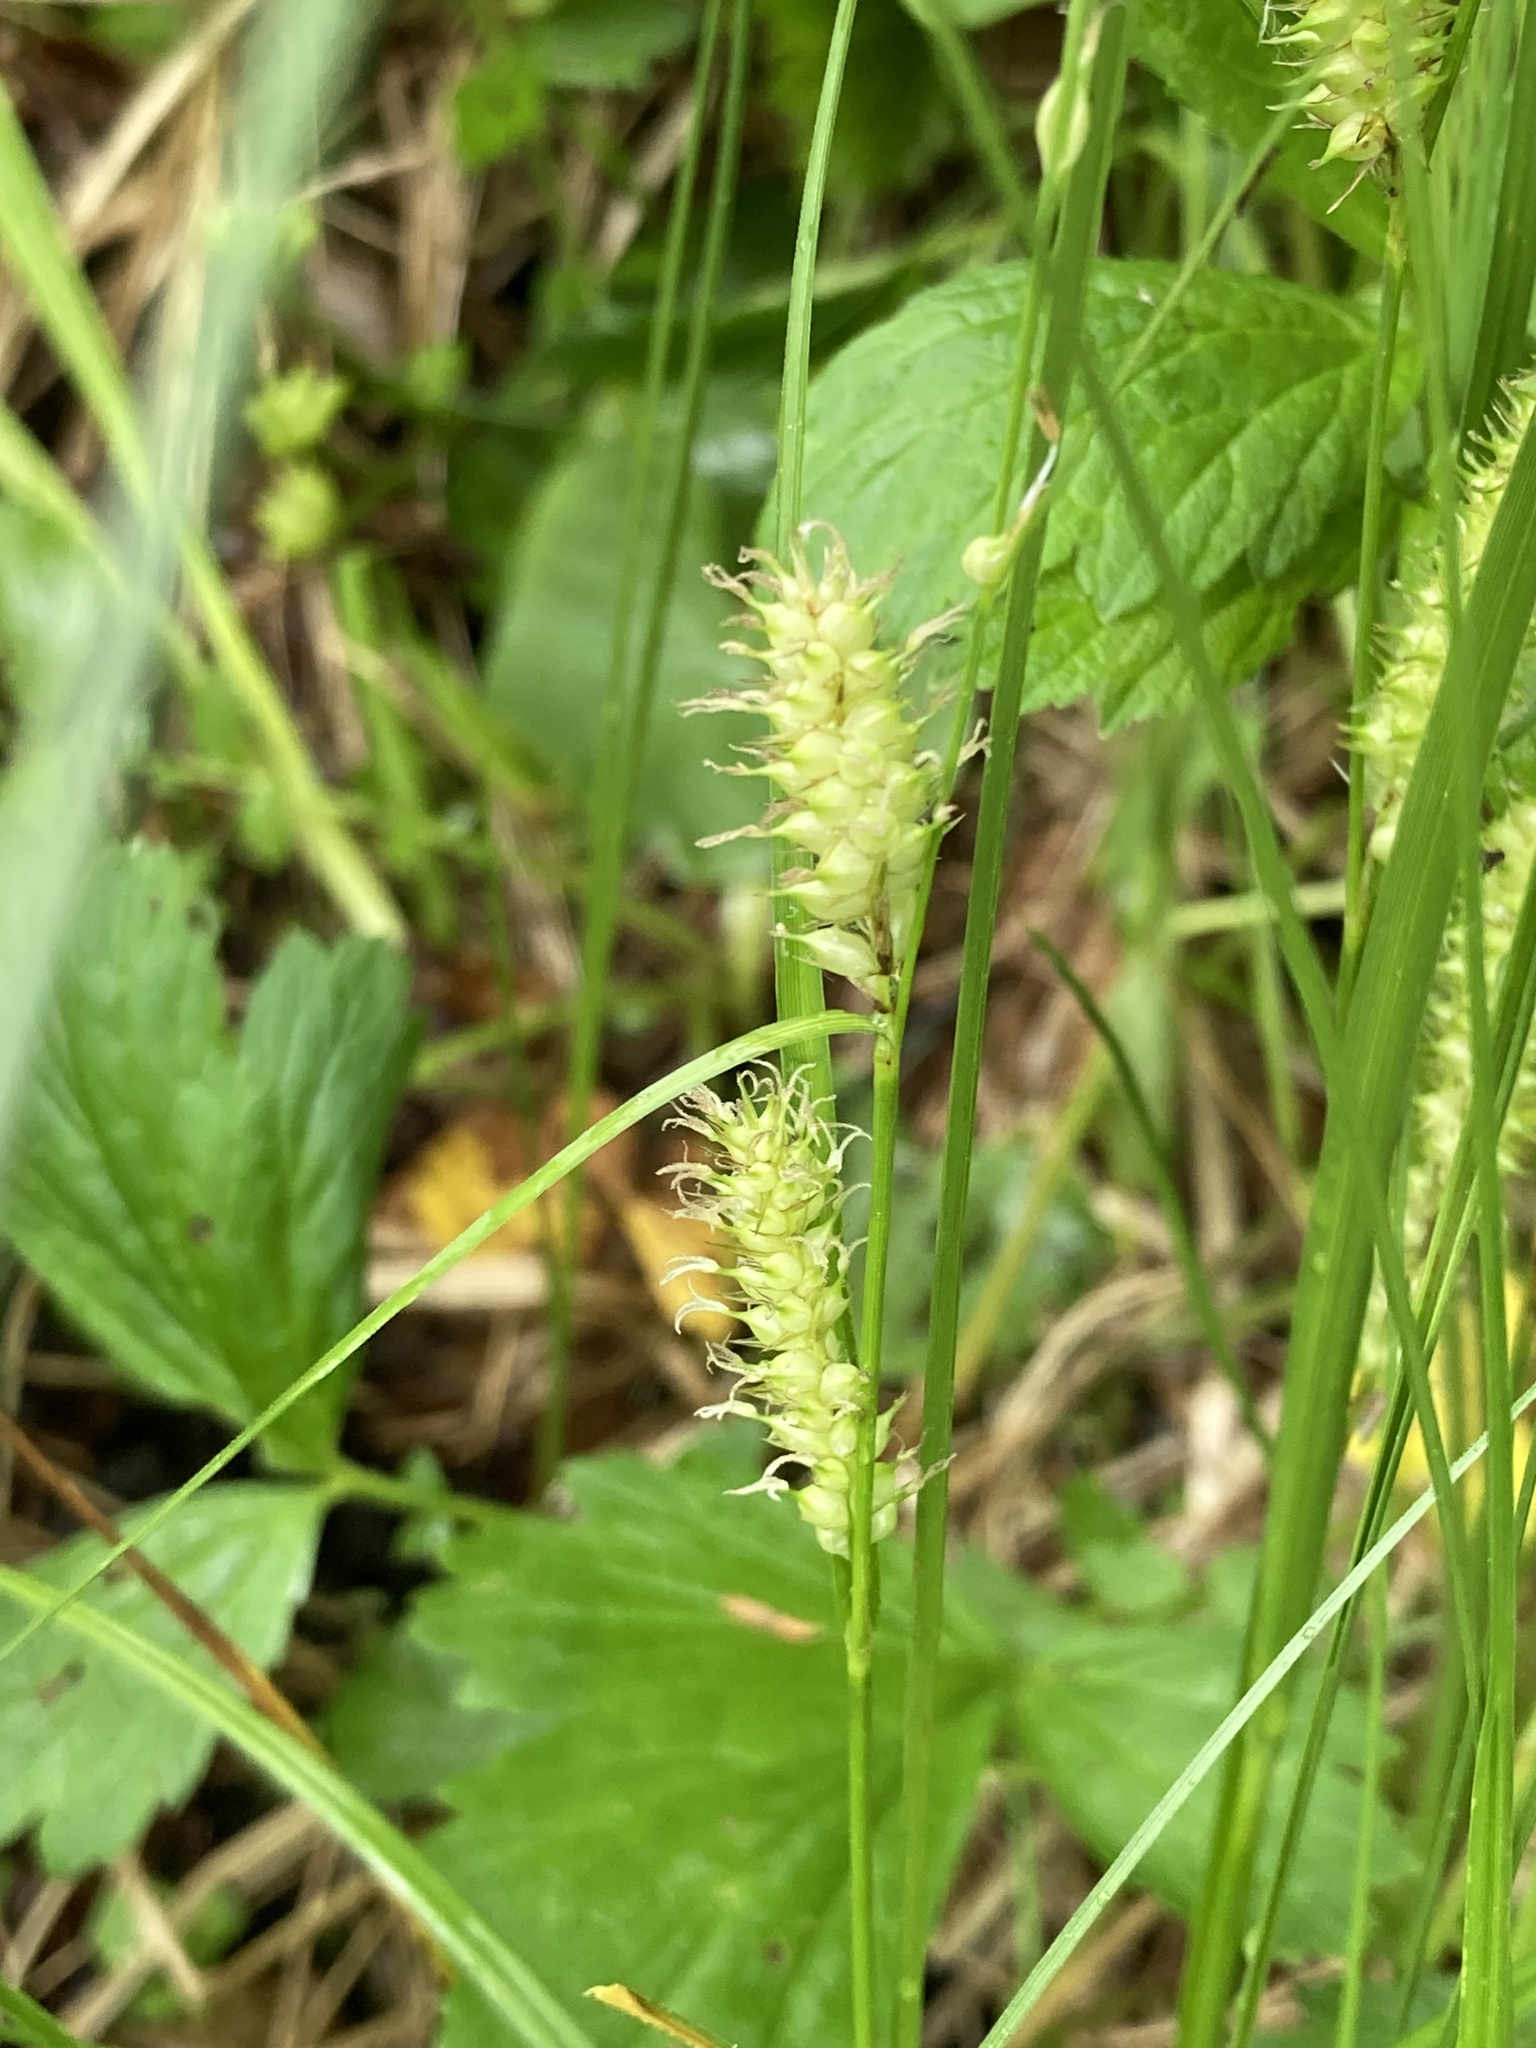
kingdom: Plantae
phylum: Tracheophyta
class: Liliopsida
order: Poales
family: Cyperaceae
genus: Carex
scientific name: Carex utriculata
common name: Beaked sedge
